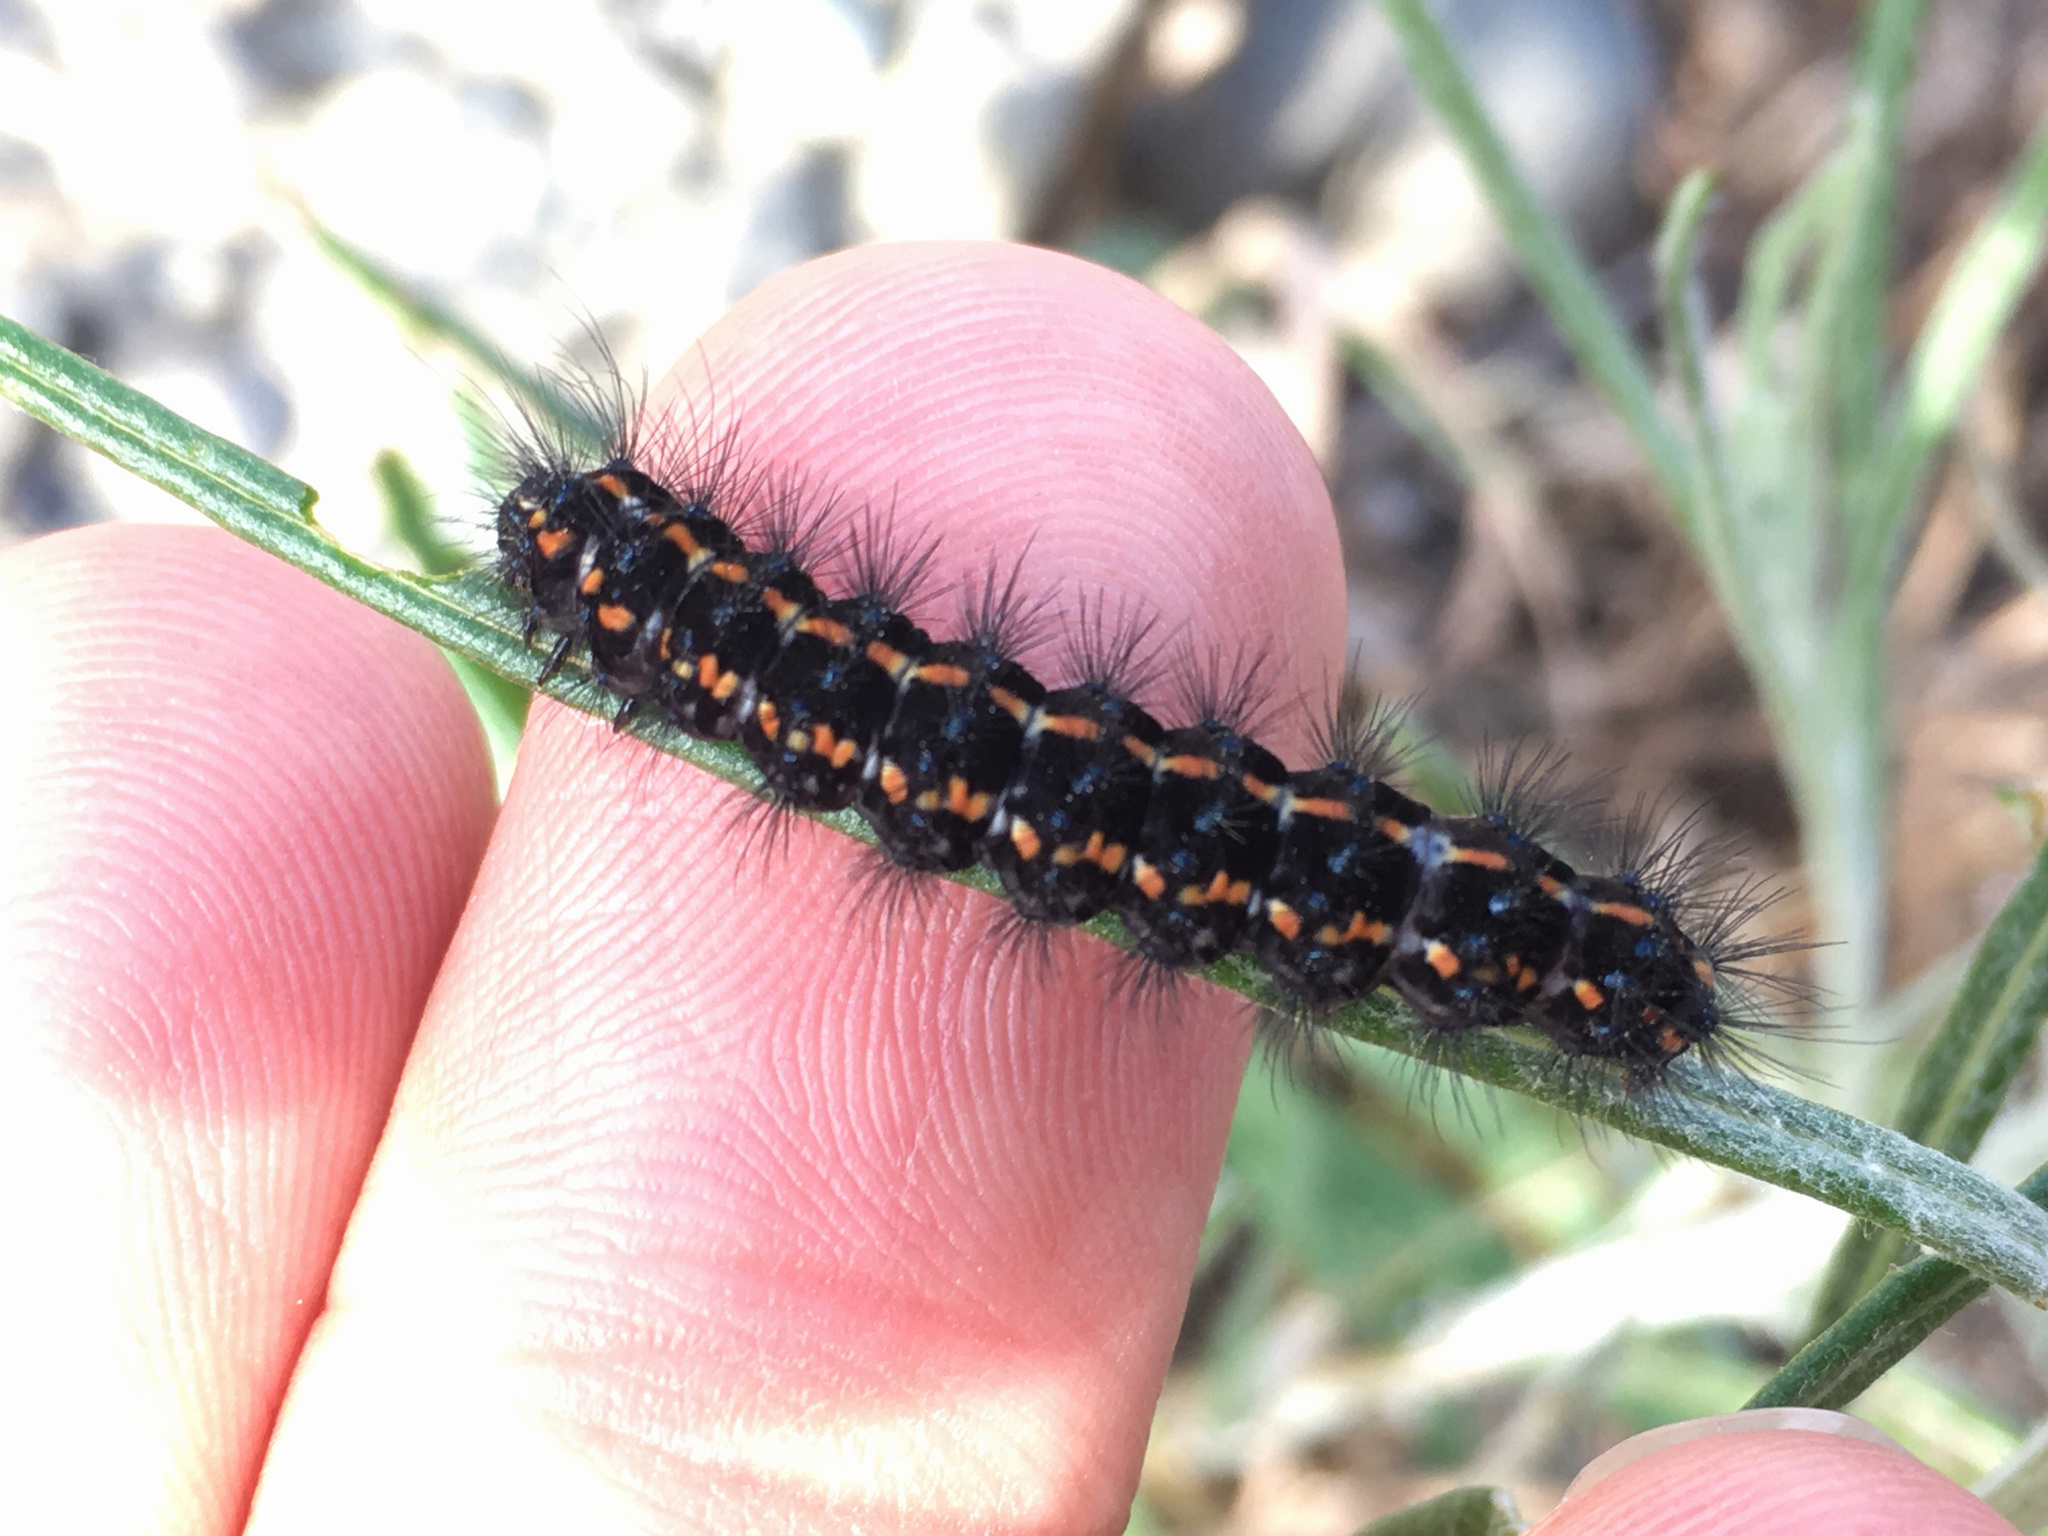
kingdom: Animalia
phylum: Arthropoda
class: Insecta
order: Lepidoptera
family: Erebidae
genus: Nyctemera
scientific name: Nyctemera annulatum
